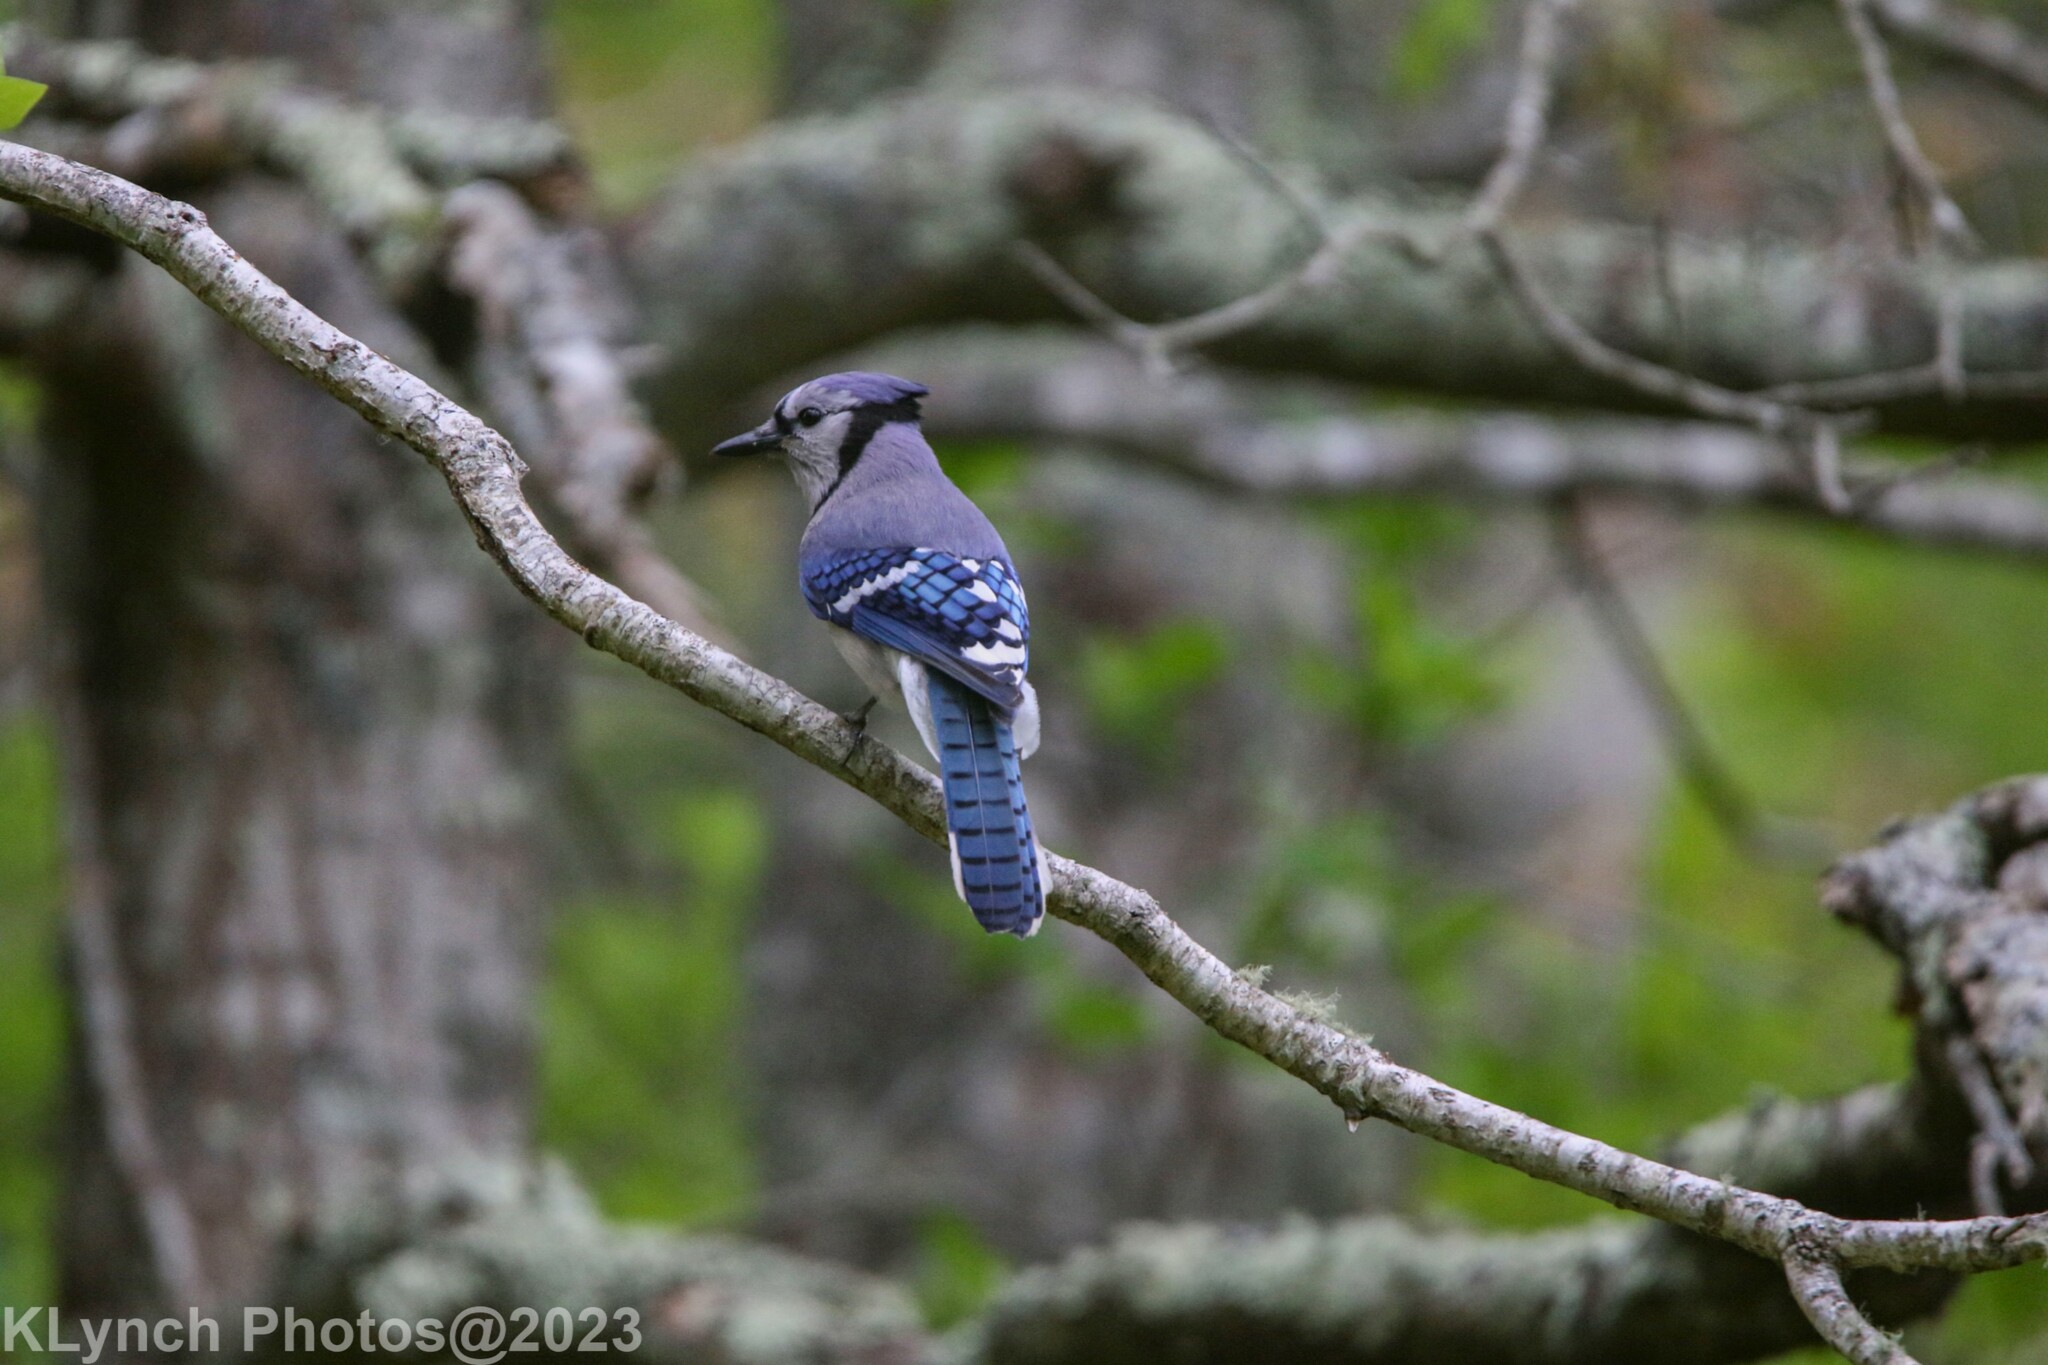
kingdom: Animalia
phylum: Chordata
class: Aves
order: Passeriformes
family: Corvidae
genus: Cyanocitta
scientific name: Cyanocitta cristata
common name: Blue jay
